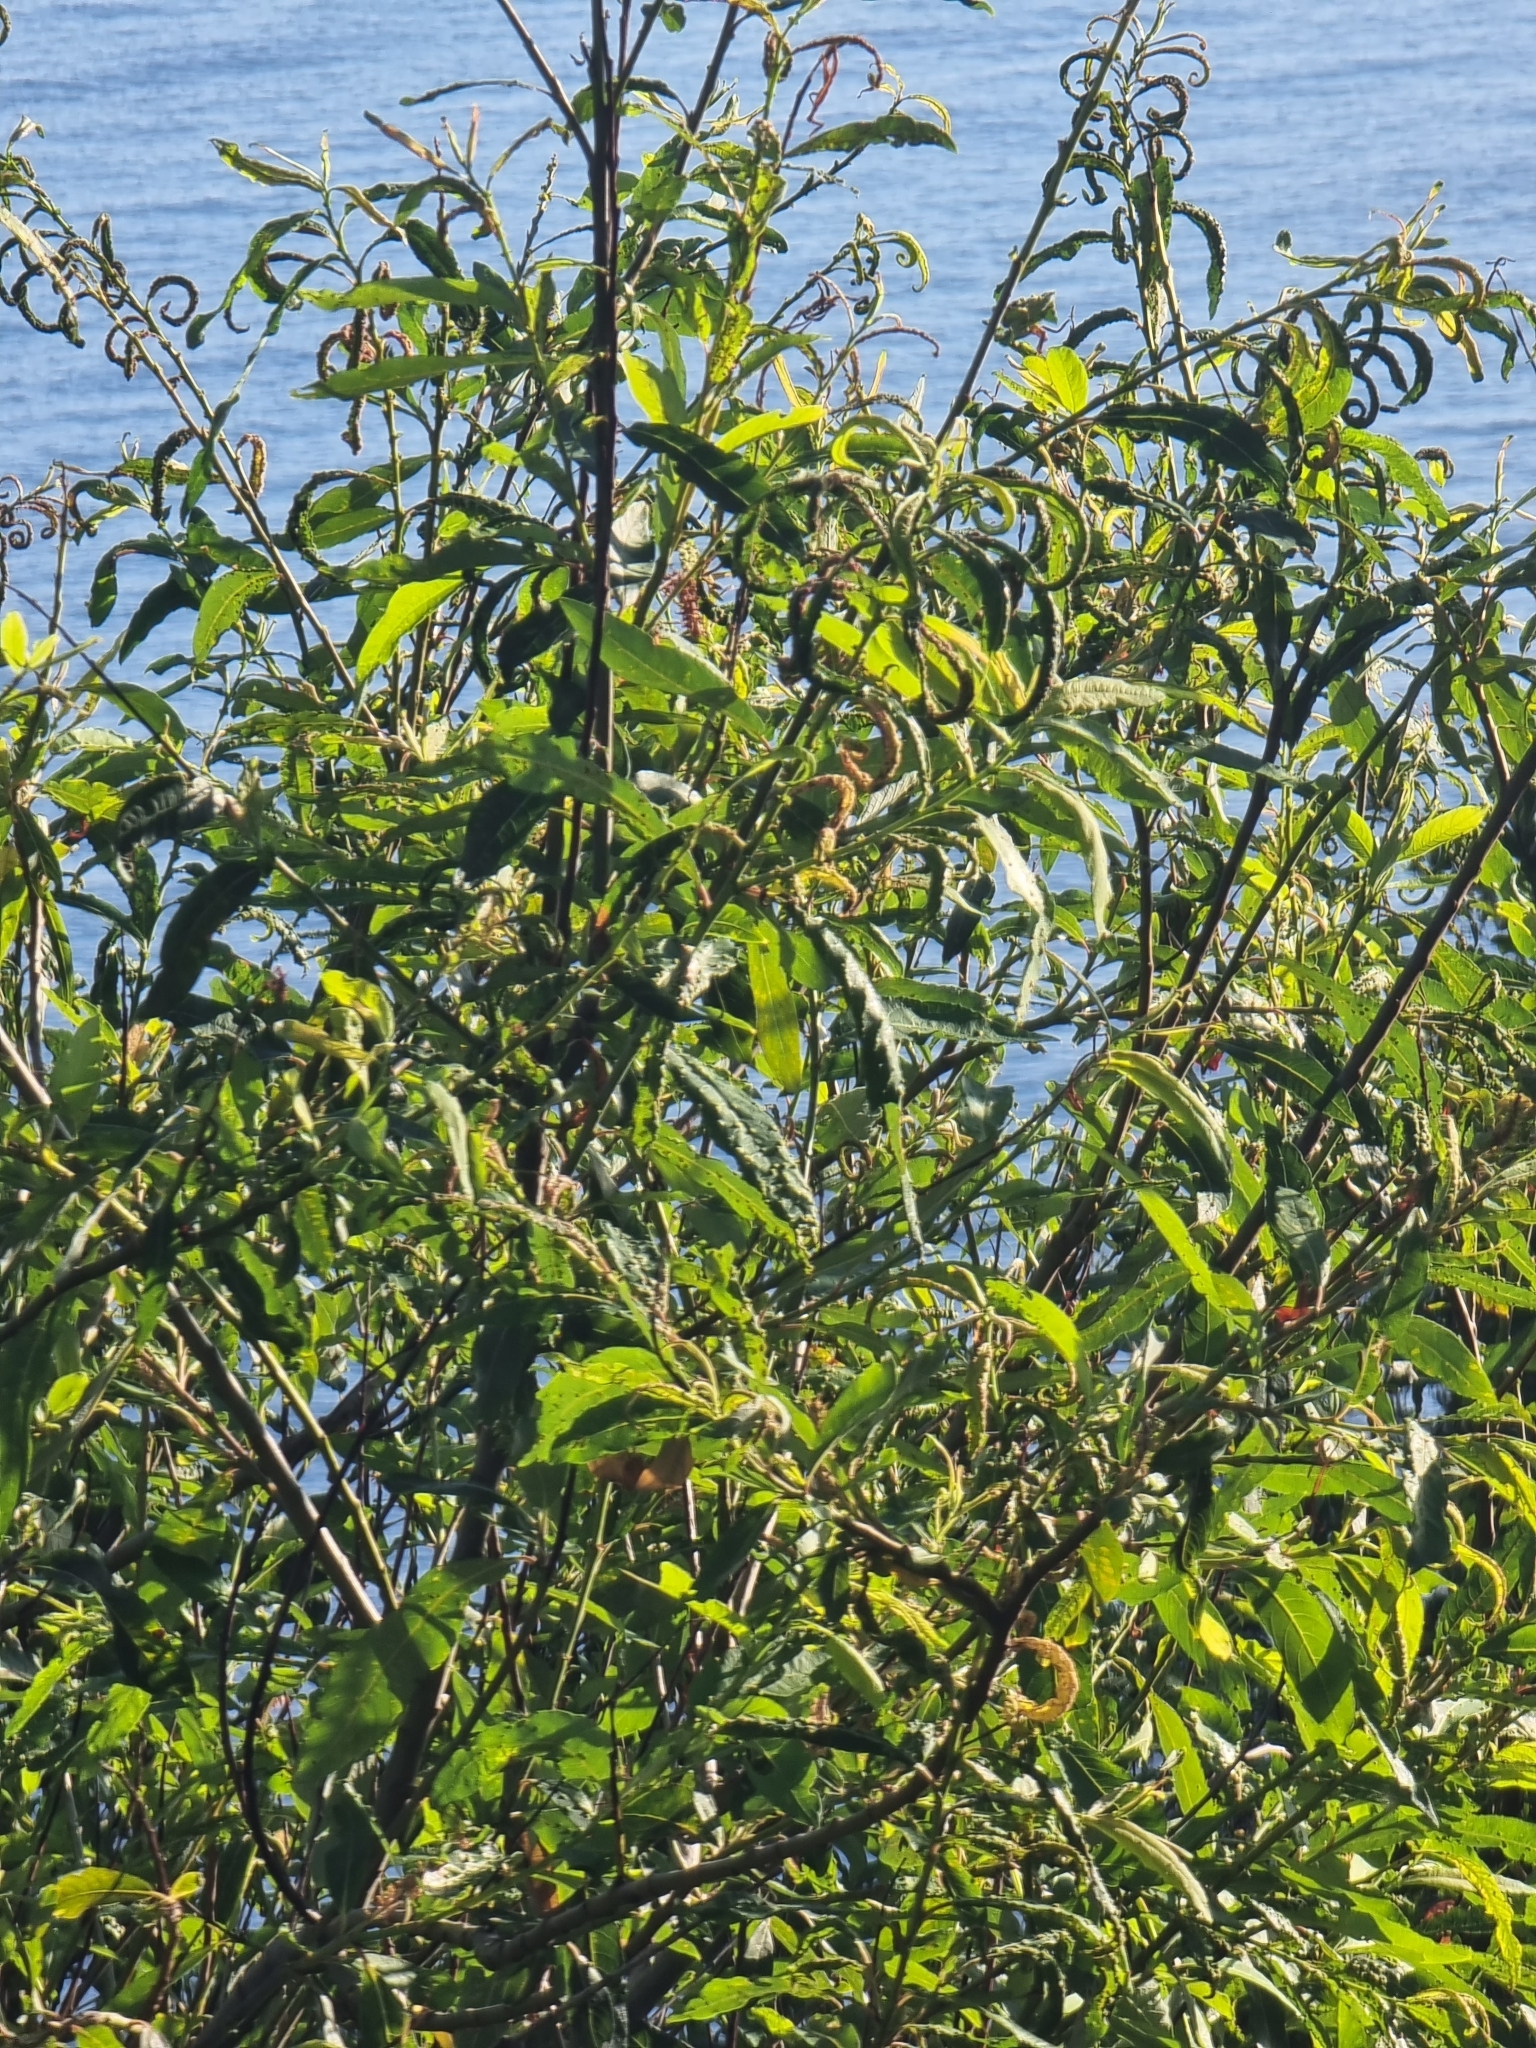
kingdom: Plantae
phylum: Tracheophyta
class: Magnoliopsida
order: Malpighiales
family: Salicaceae
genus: Salix
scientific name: Salix canariensis
